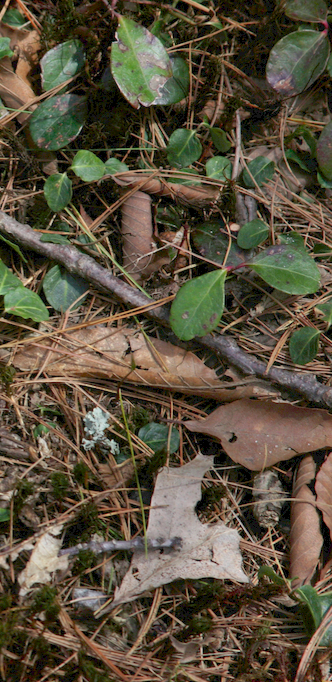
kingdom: Plantae
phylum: Tracheophyta
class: Magnoliopsida
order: Ericales
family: Ericaceae
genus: Gaultheria
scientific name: Gaultheria procumbens
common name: Checkerberry
